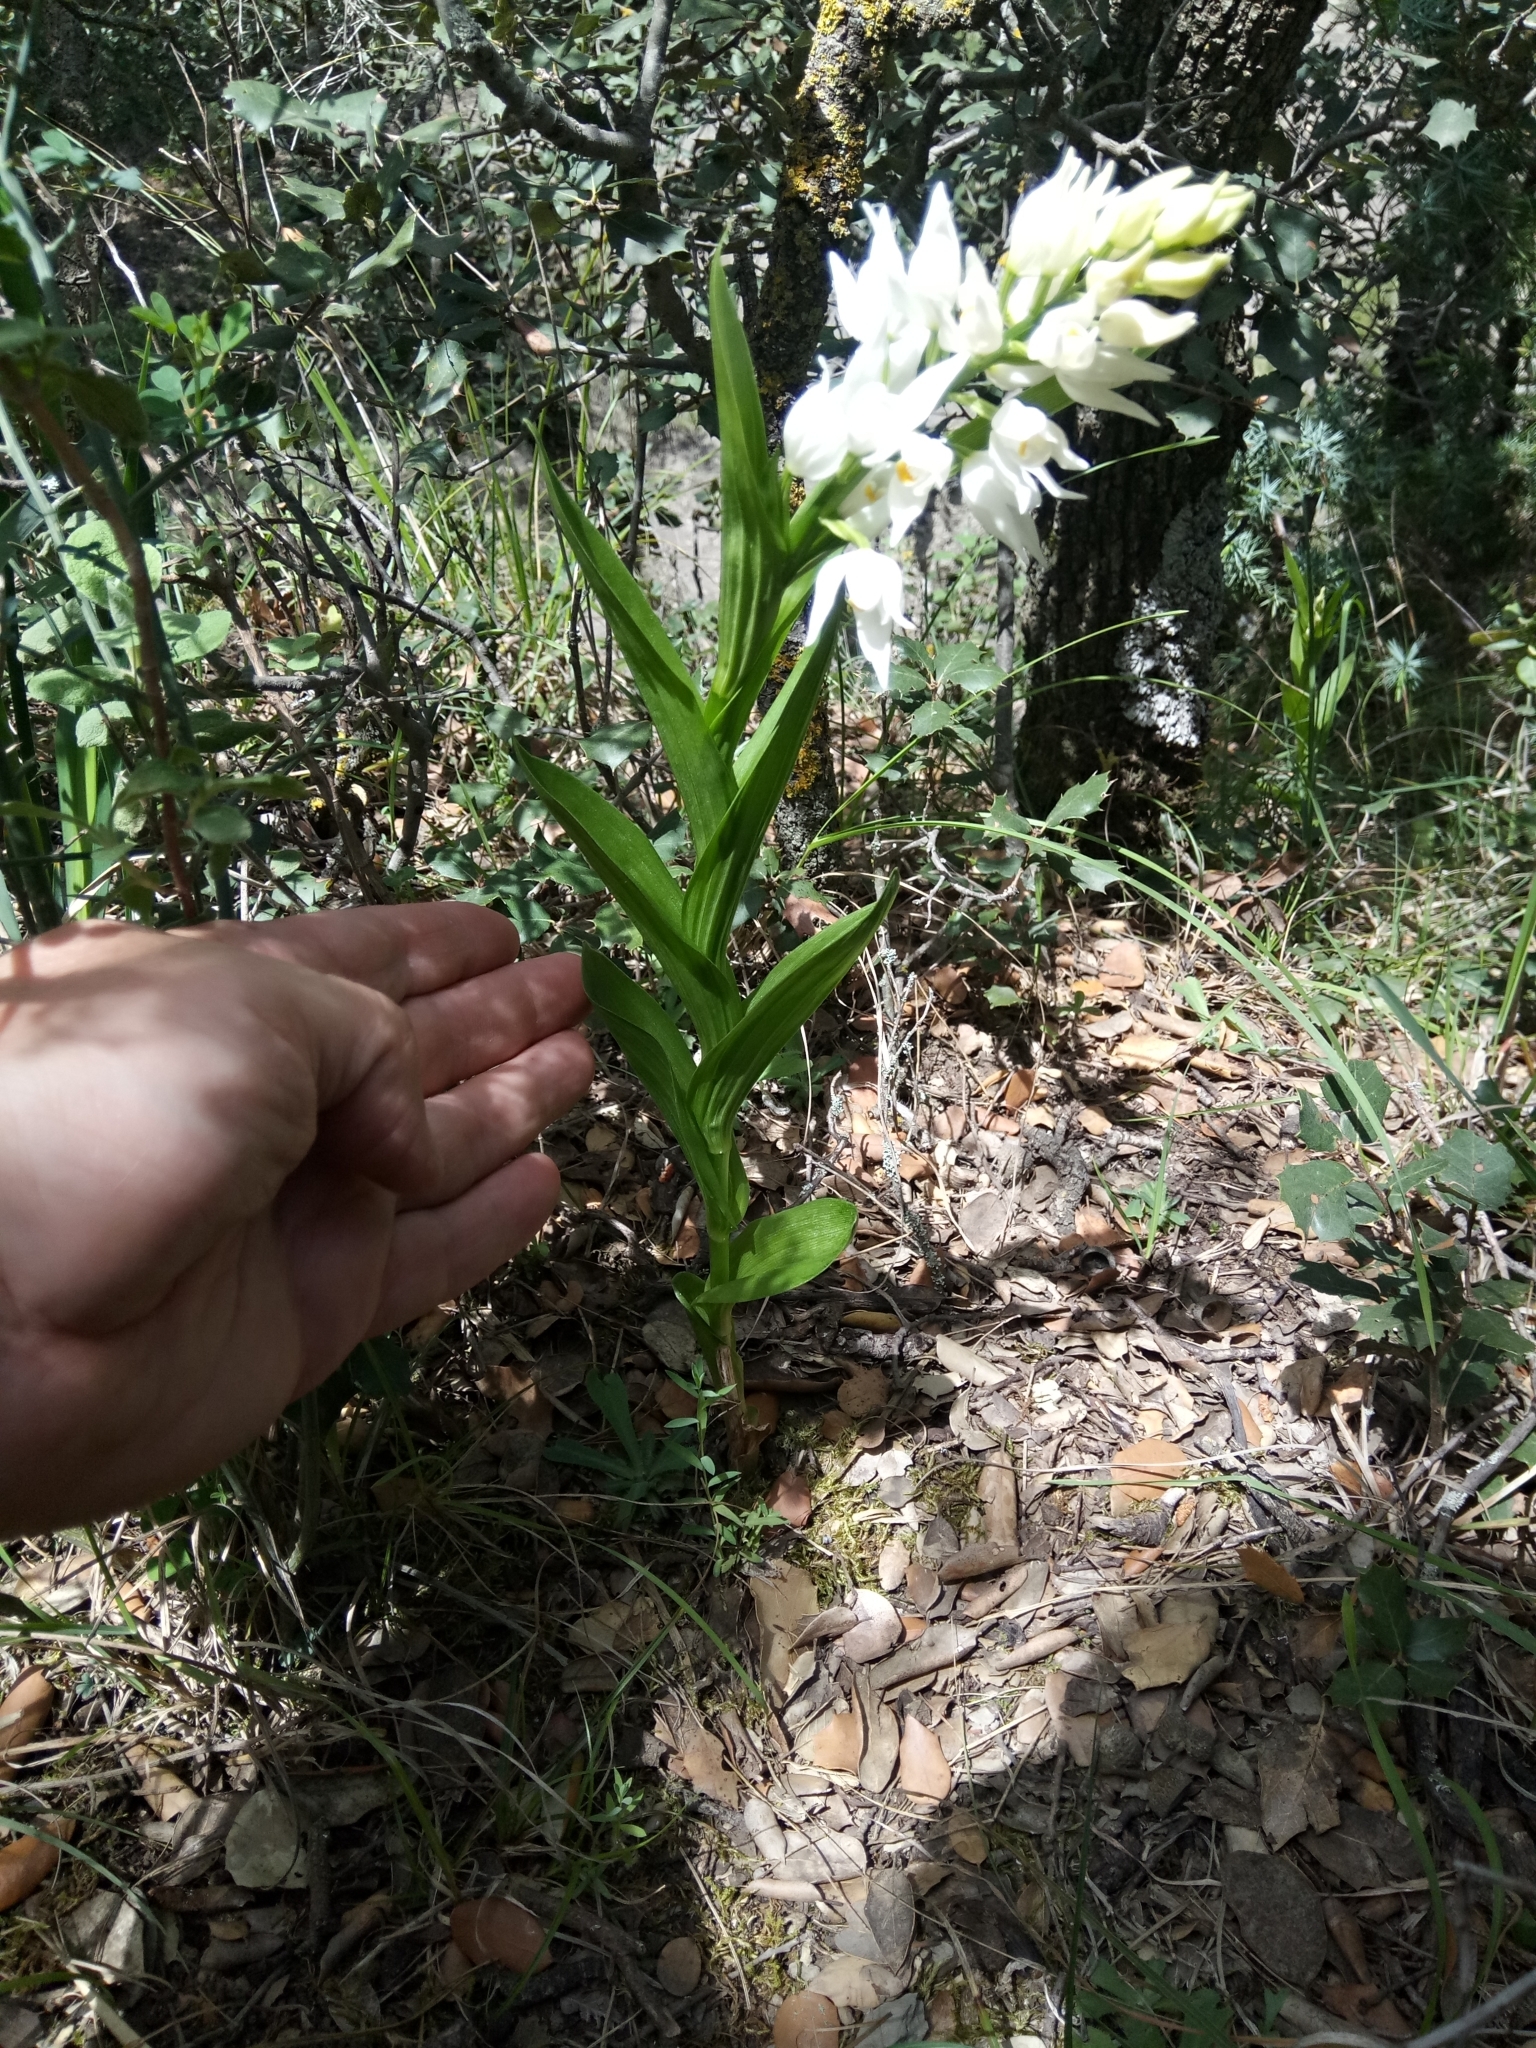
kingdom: Plantae
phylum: Tracheophyta
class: Liliopsida
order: Asparagales
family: Orchidaceae
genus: Cephalanthera
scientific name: Cephalanthera longifolia
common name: Narrow-leaved helleborine
